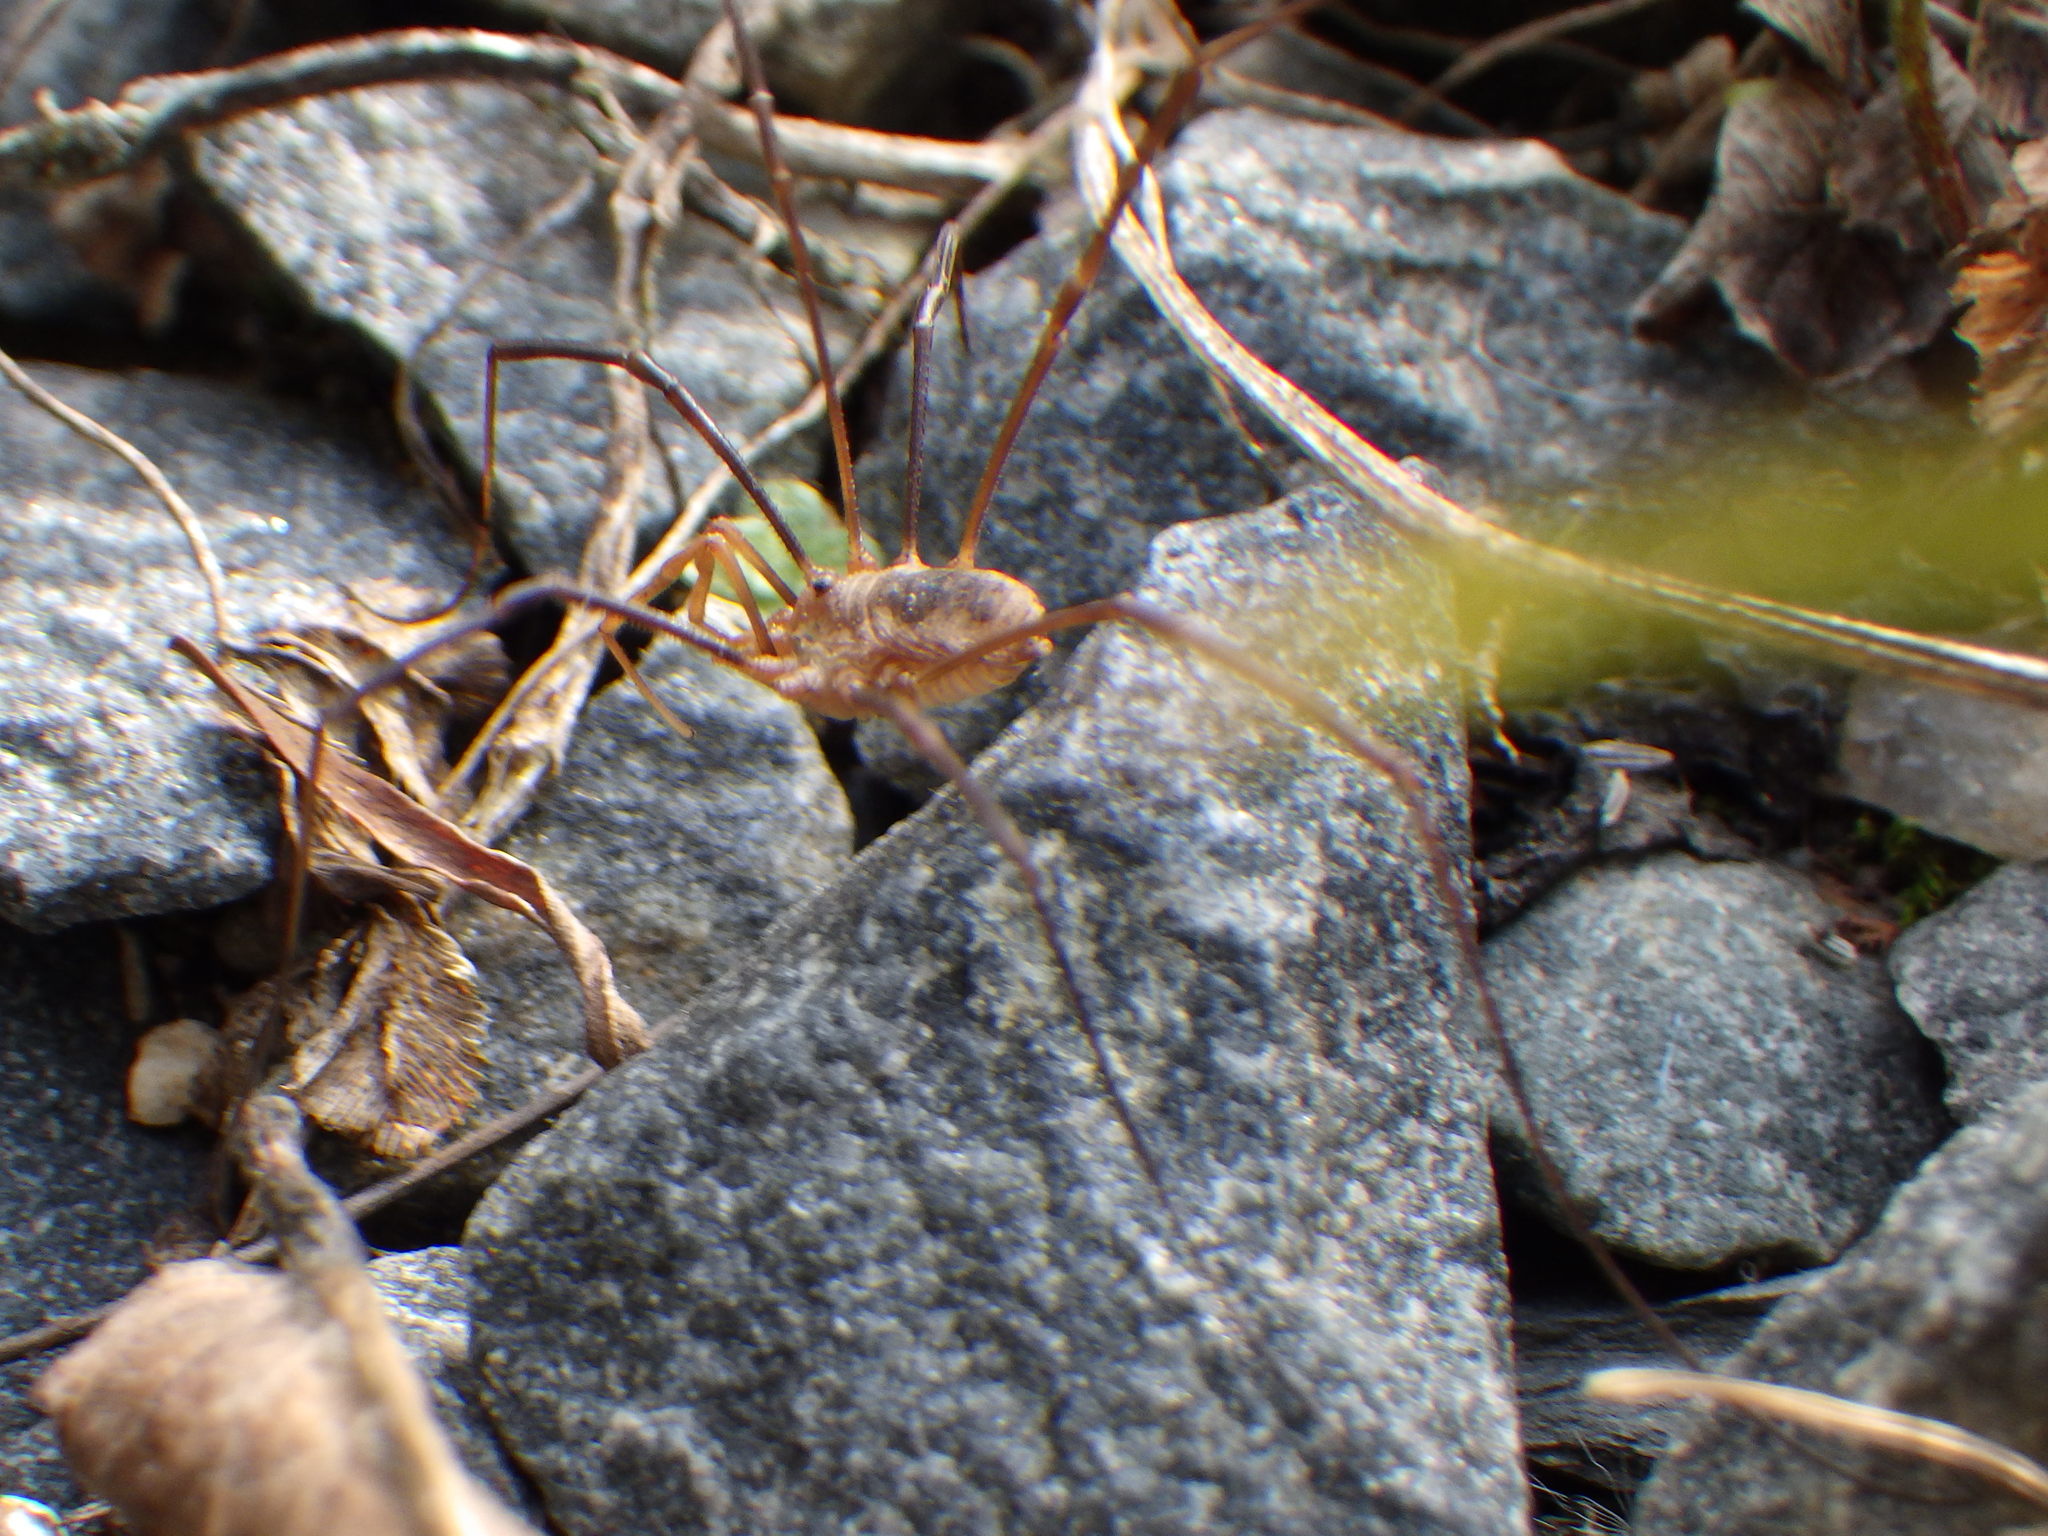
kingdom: Animalia
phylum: Arthropoda
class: Arachnida
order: Opiliones
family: Phalangiidae
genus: Phalangium
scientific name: Phalangium opilio
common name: Daddy longleg
